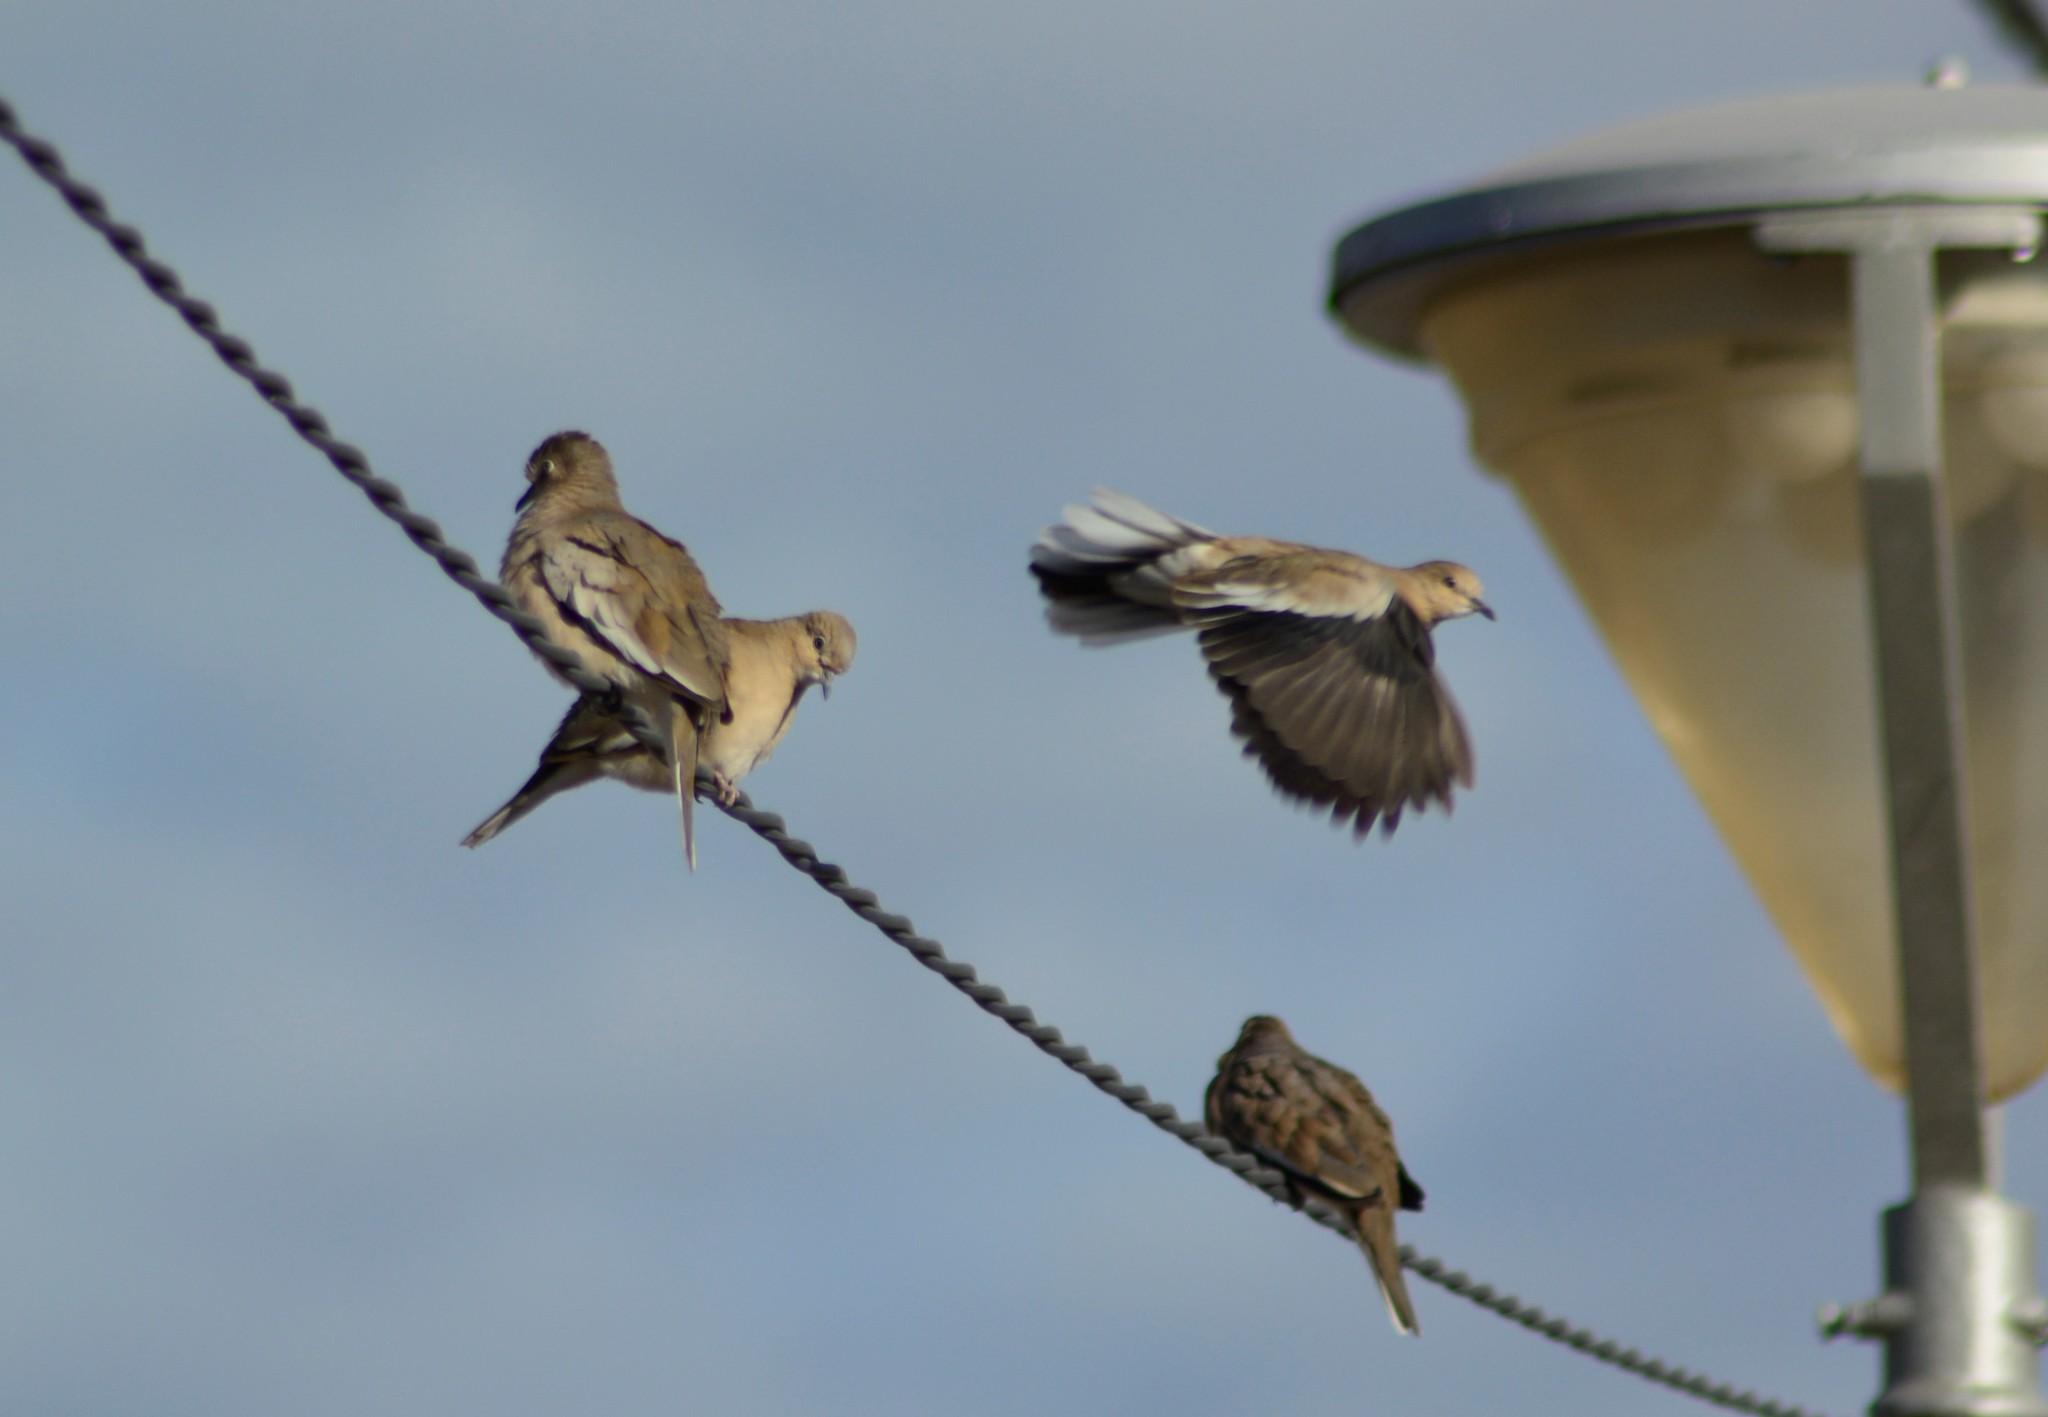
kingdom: Animalia
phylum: Chordata
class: Aves
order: Columbiformes
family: Columbidae
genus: Columbina
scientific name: Columbina picui
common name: Picui ground dove
